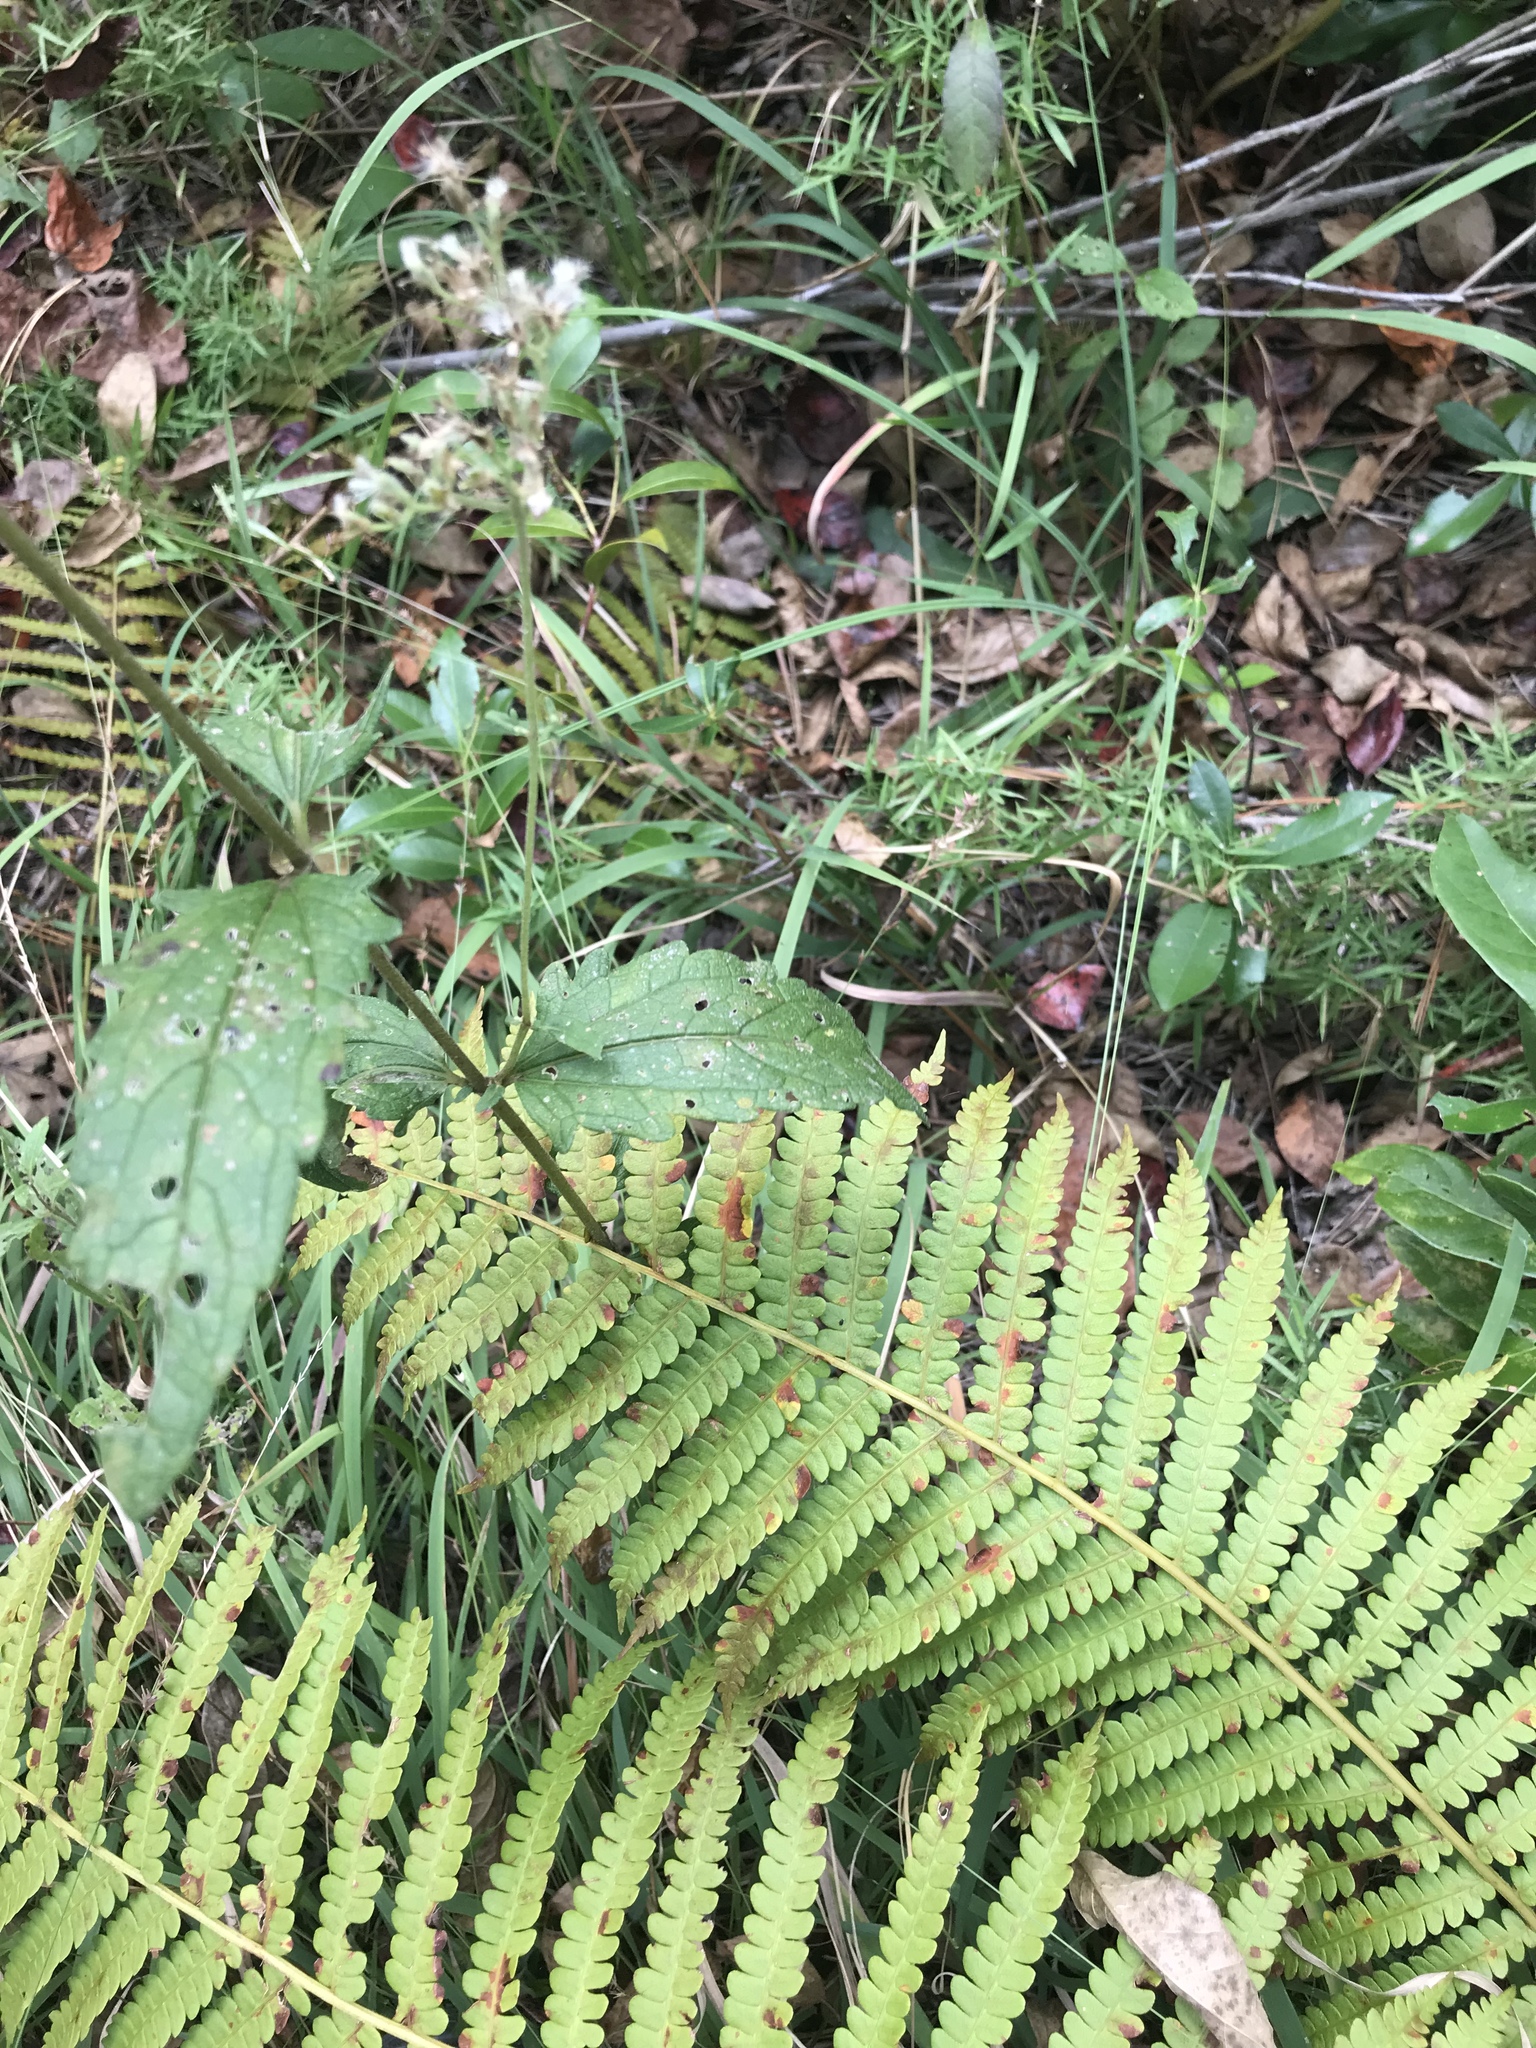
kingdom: Plantae
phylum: Tracheophyta
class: Magnoliopsida
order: Asterales
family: Asteraceae
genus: Eupatorium
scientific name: Eupatorium album
